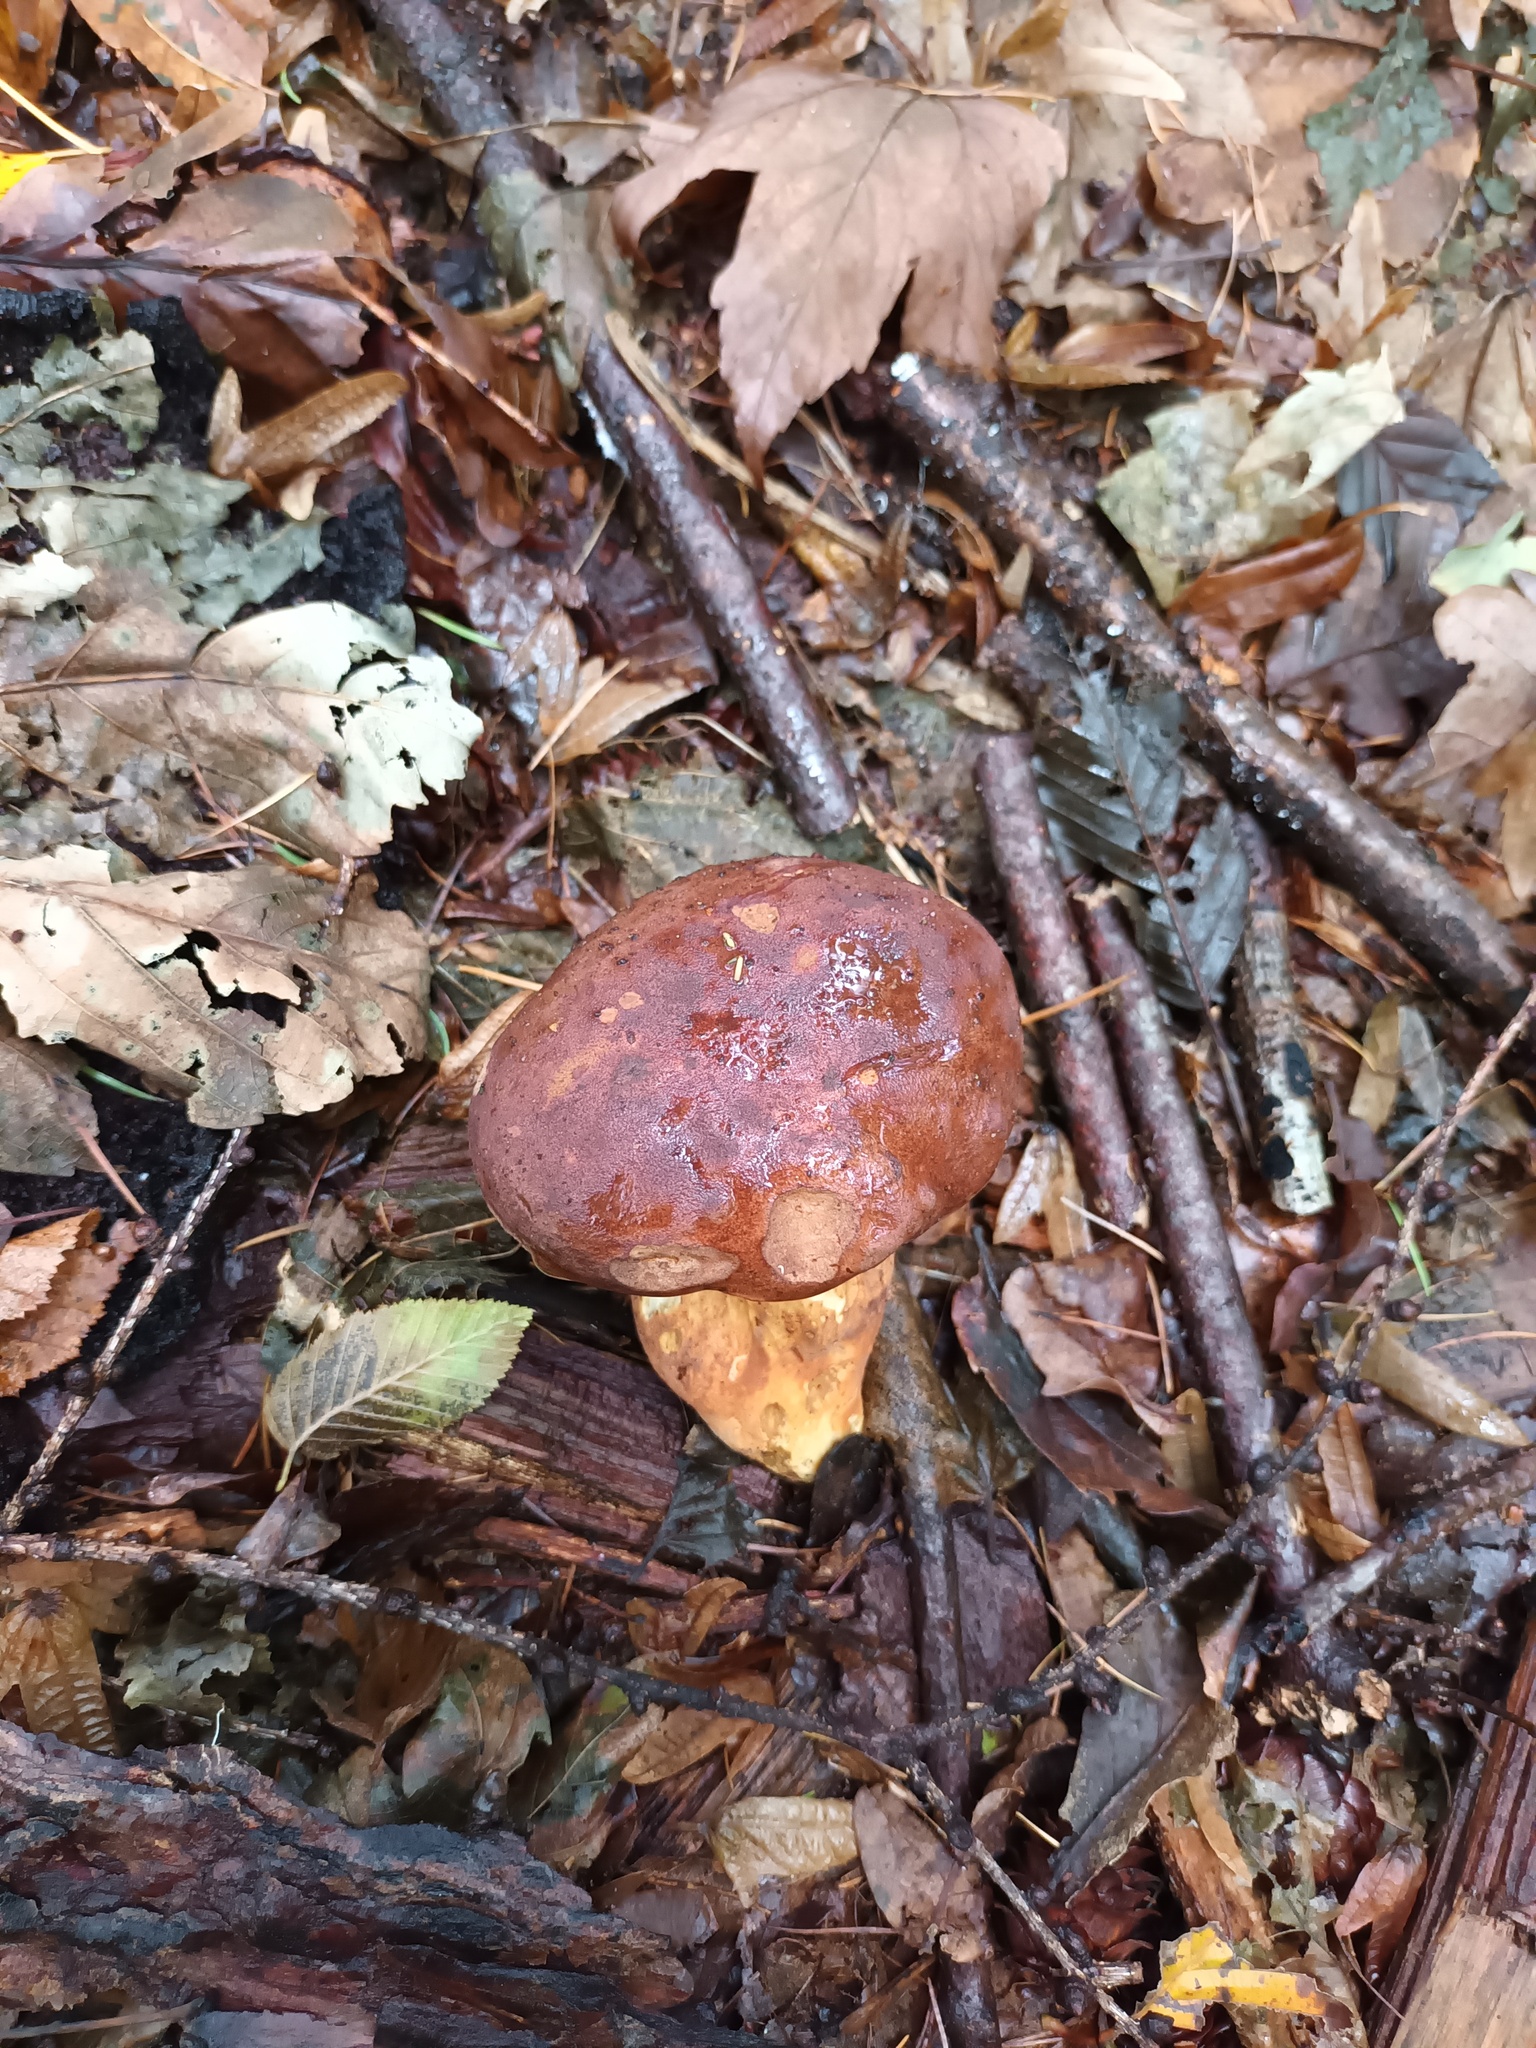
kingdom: Fungi
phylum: Basidiomycota
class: Agaricomycetes
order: Boletales
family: Boletaceae
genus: Imleria
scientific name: Imleria badia
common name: Bay bolete
